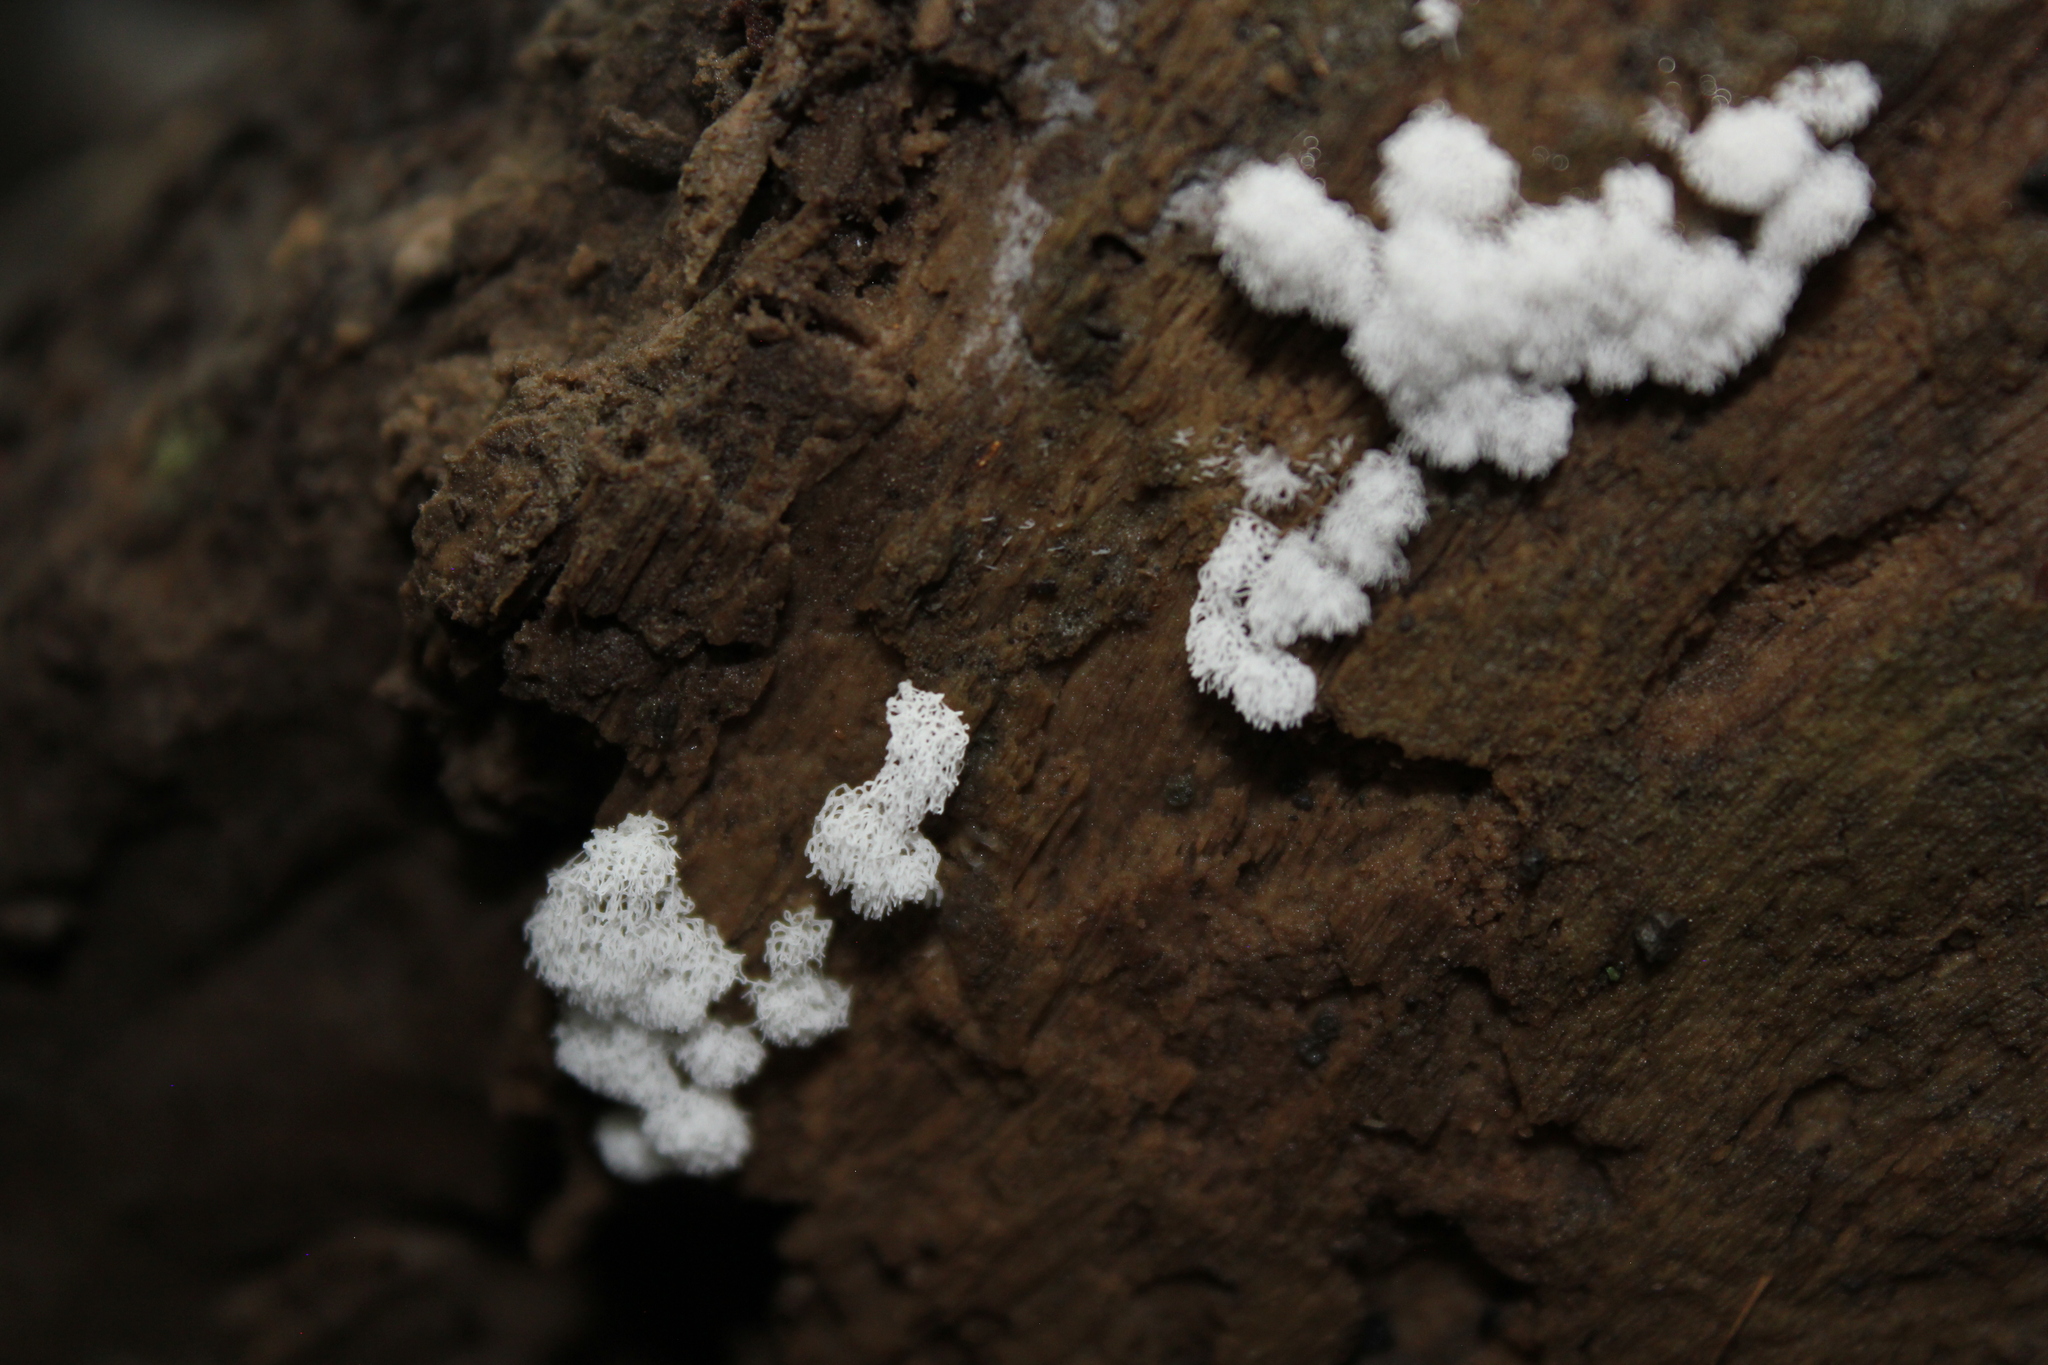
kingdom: Protozoa
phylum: Mycetozoa
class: Protosteliomycetes
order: Ceratiomyxales
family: Ceratiomyxaceae
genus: Ceratiomyxa
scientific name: Ceratiomyxa fruticulosa
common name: Honeycomb coral slime mold
